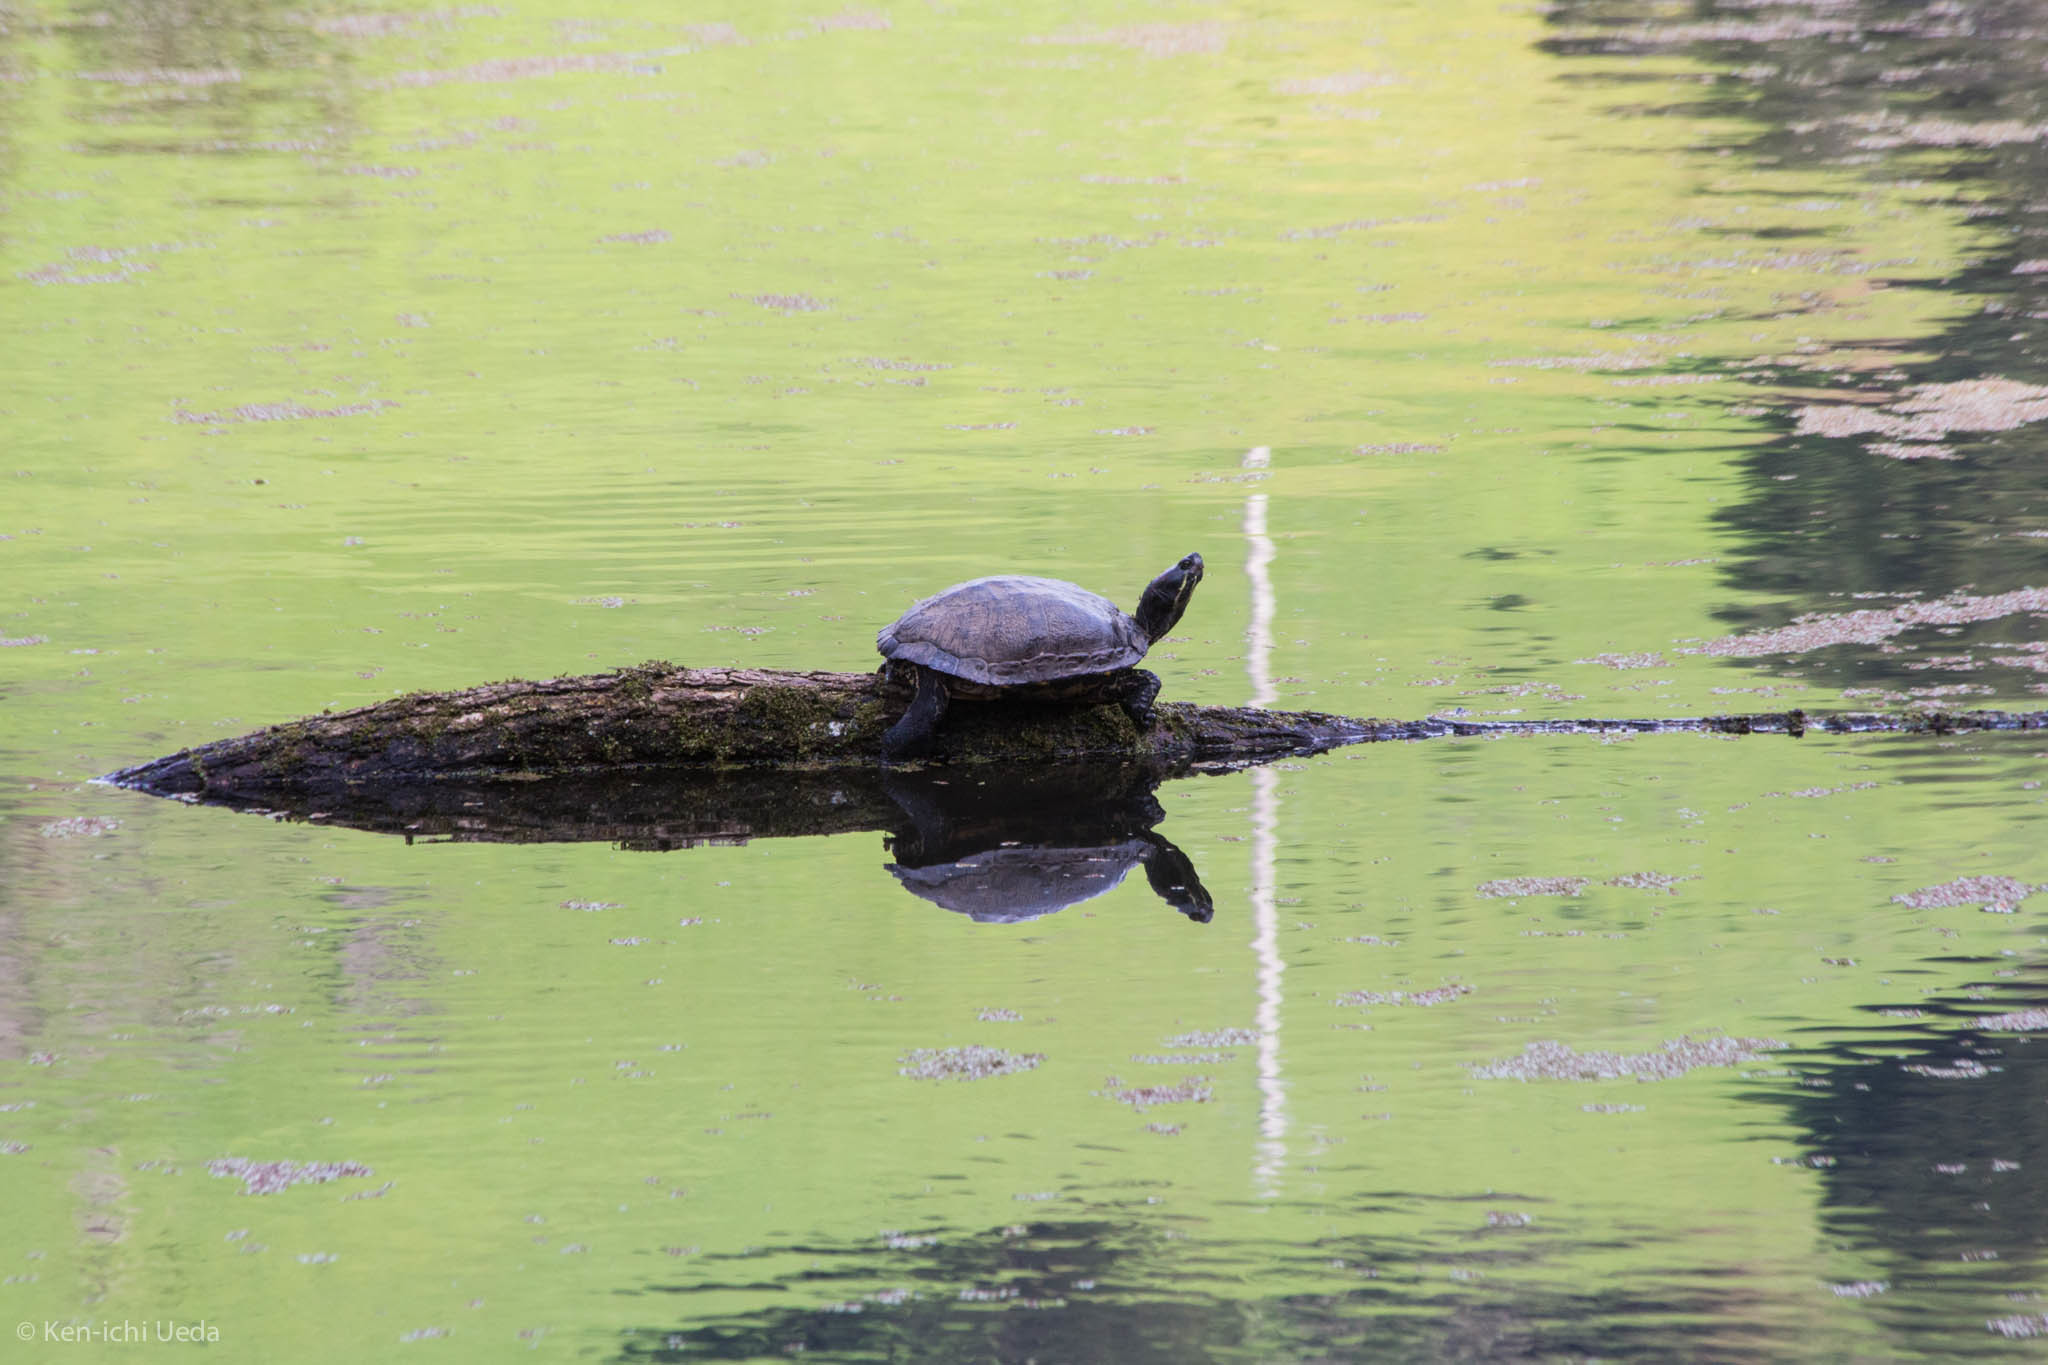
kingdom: Animalia
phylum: Chordata
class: Testudines
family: Emydidae
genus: Trachemys
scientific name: Trachemys scripta
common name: Slider
